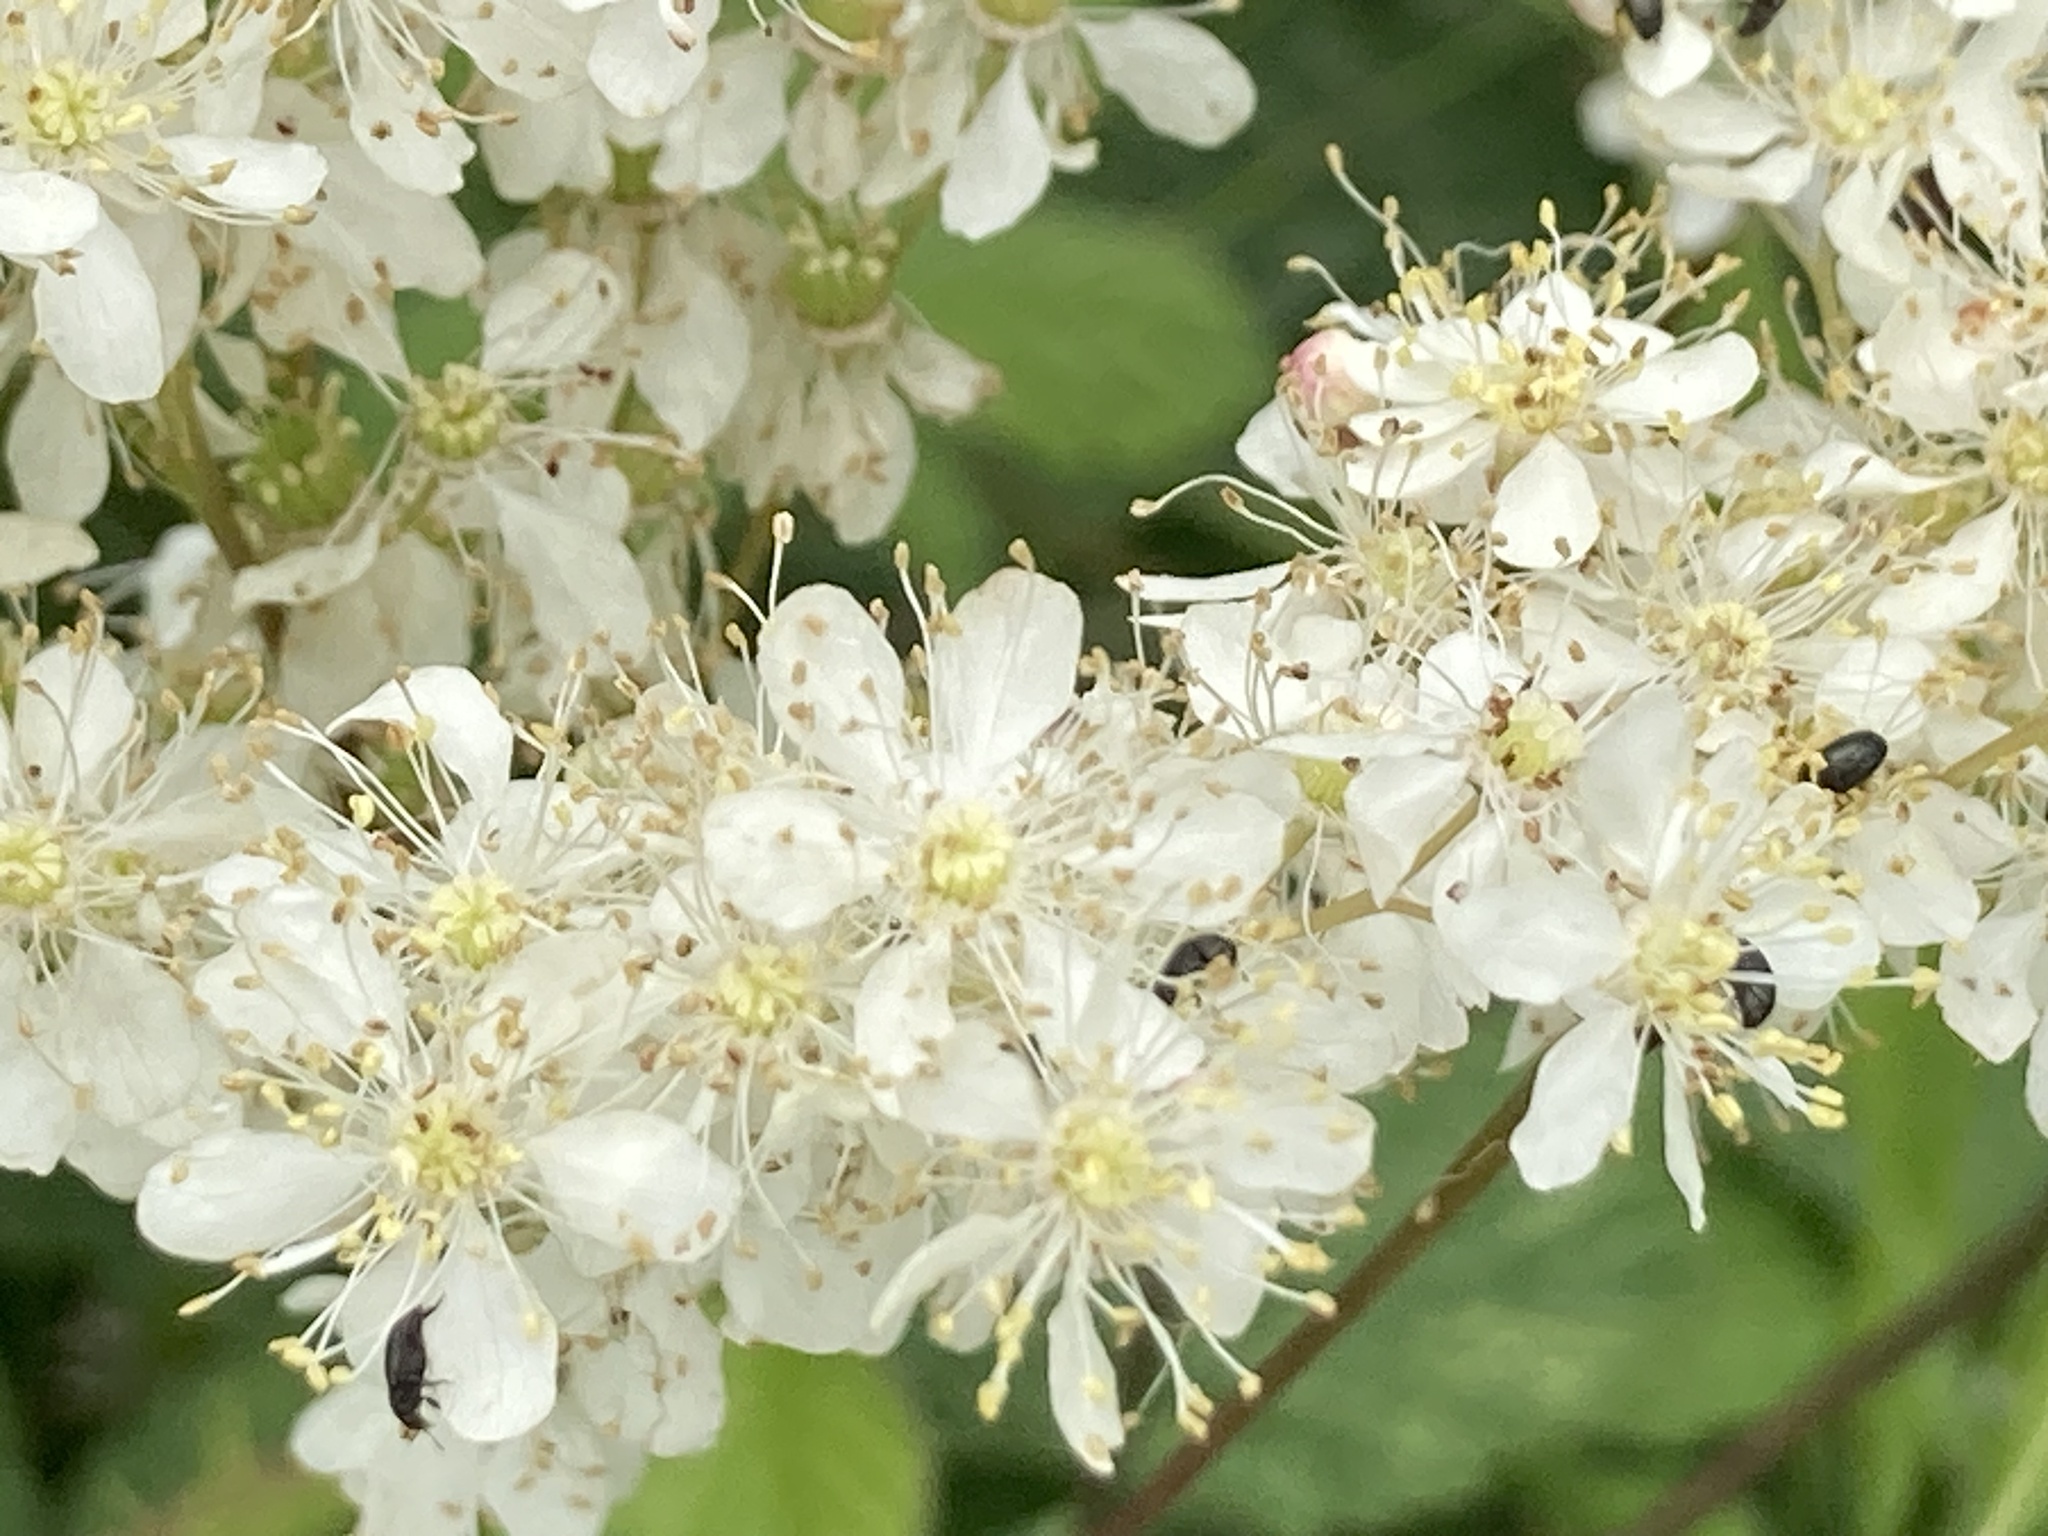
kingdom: Plantae
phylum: Tracheophyta
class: Magnoliopsida
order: Rosales
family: Rosaceae
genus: Filipendula
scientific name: Filipendula vulgaris
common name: Dropwort
